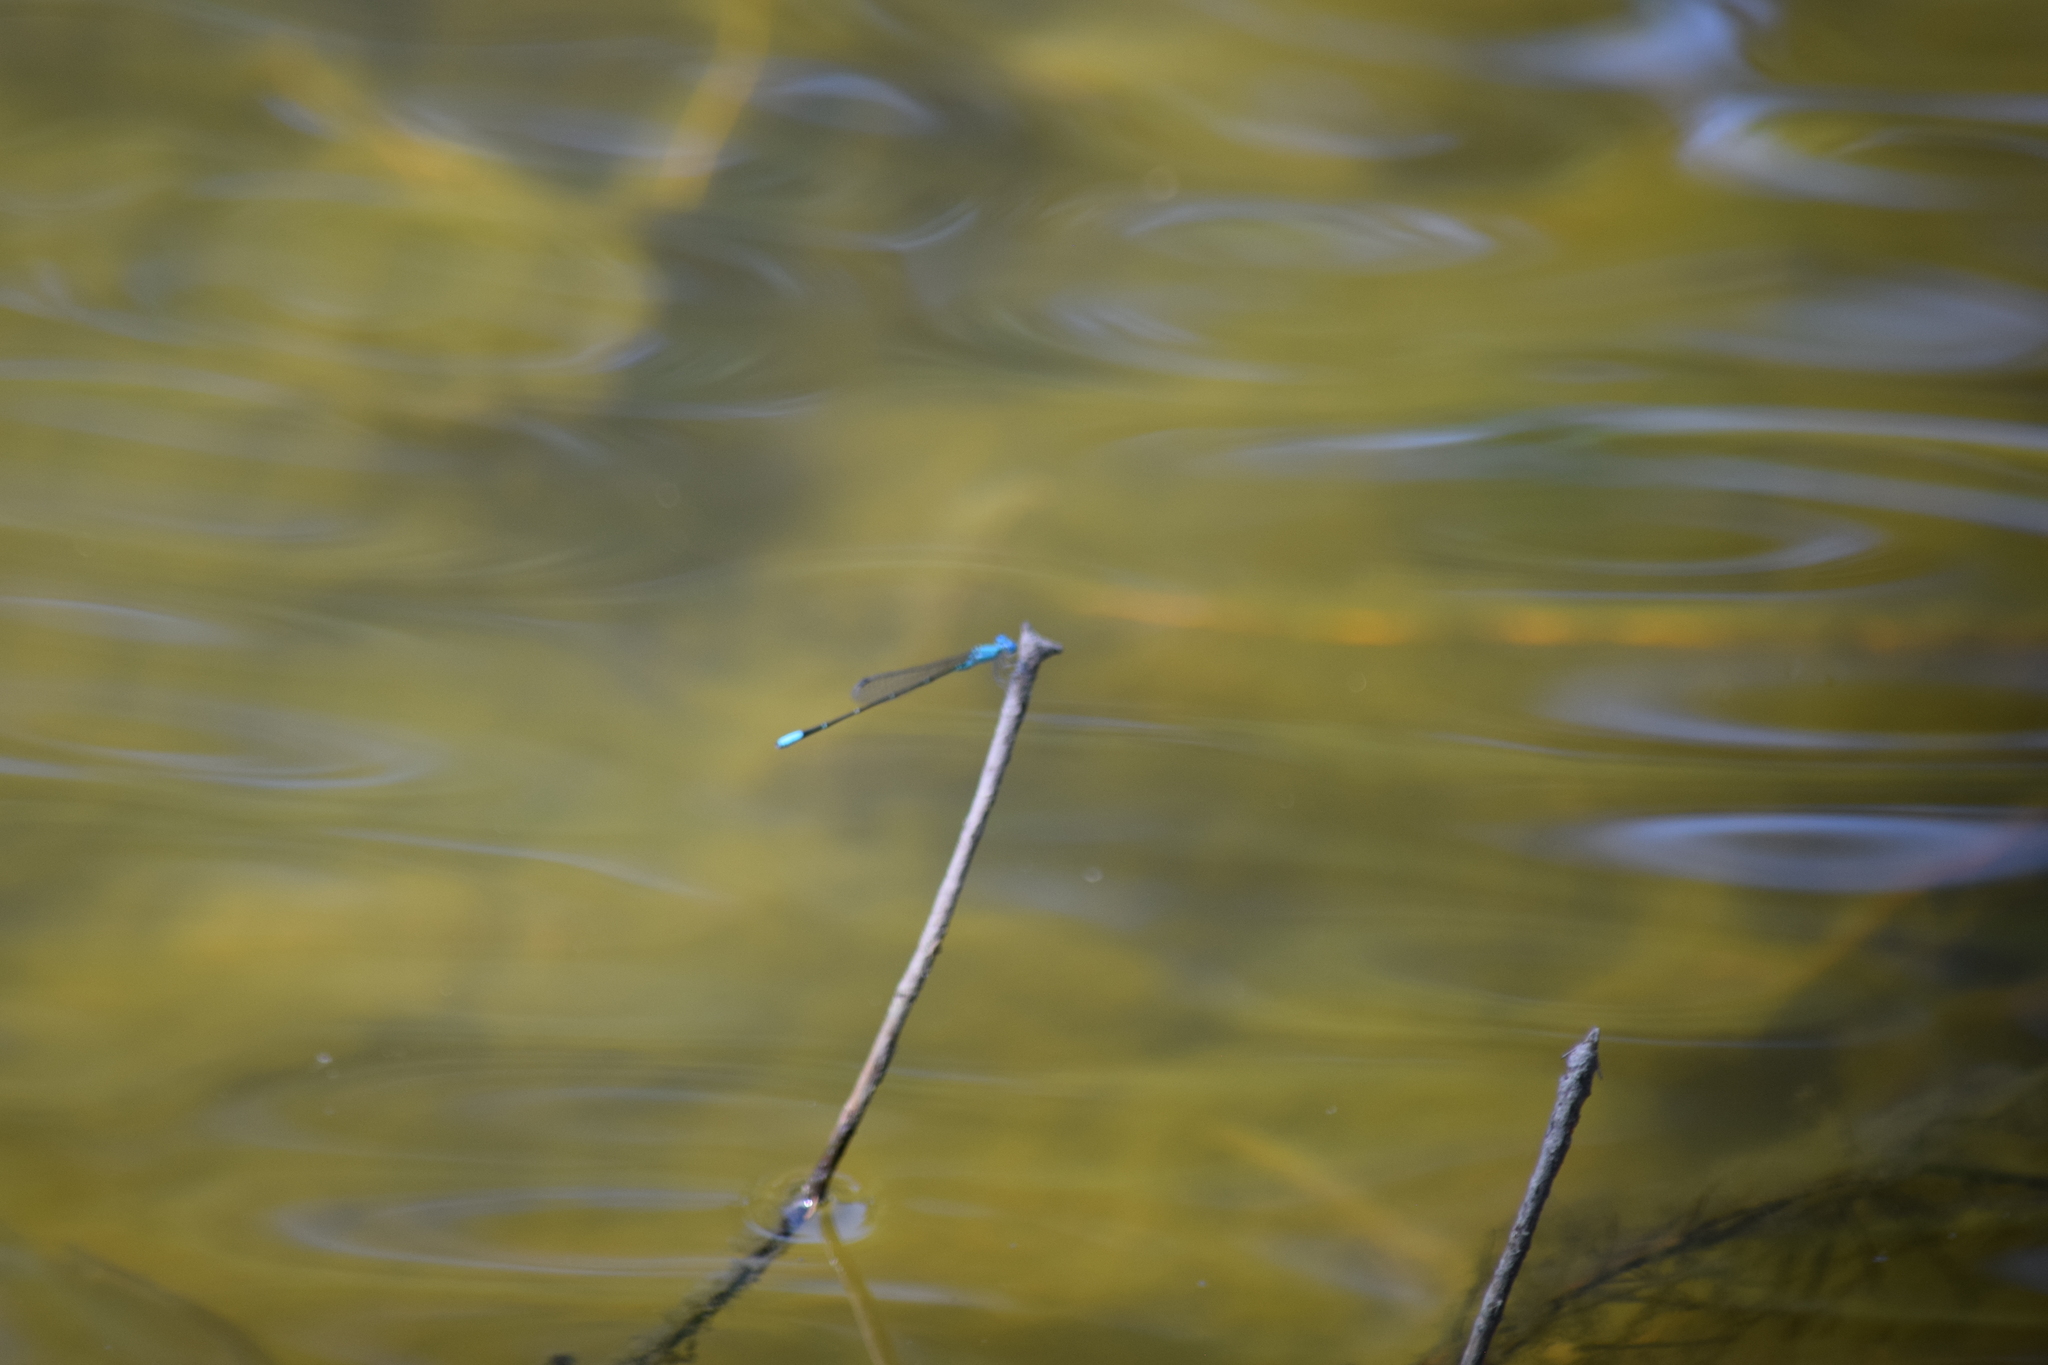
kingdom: Animalia
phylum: Arthropoda
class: Insecta
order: Odonata
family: Coenagrionidae
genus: Enallagma
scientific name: Enallagma pallidum
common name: Pale bluet
